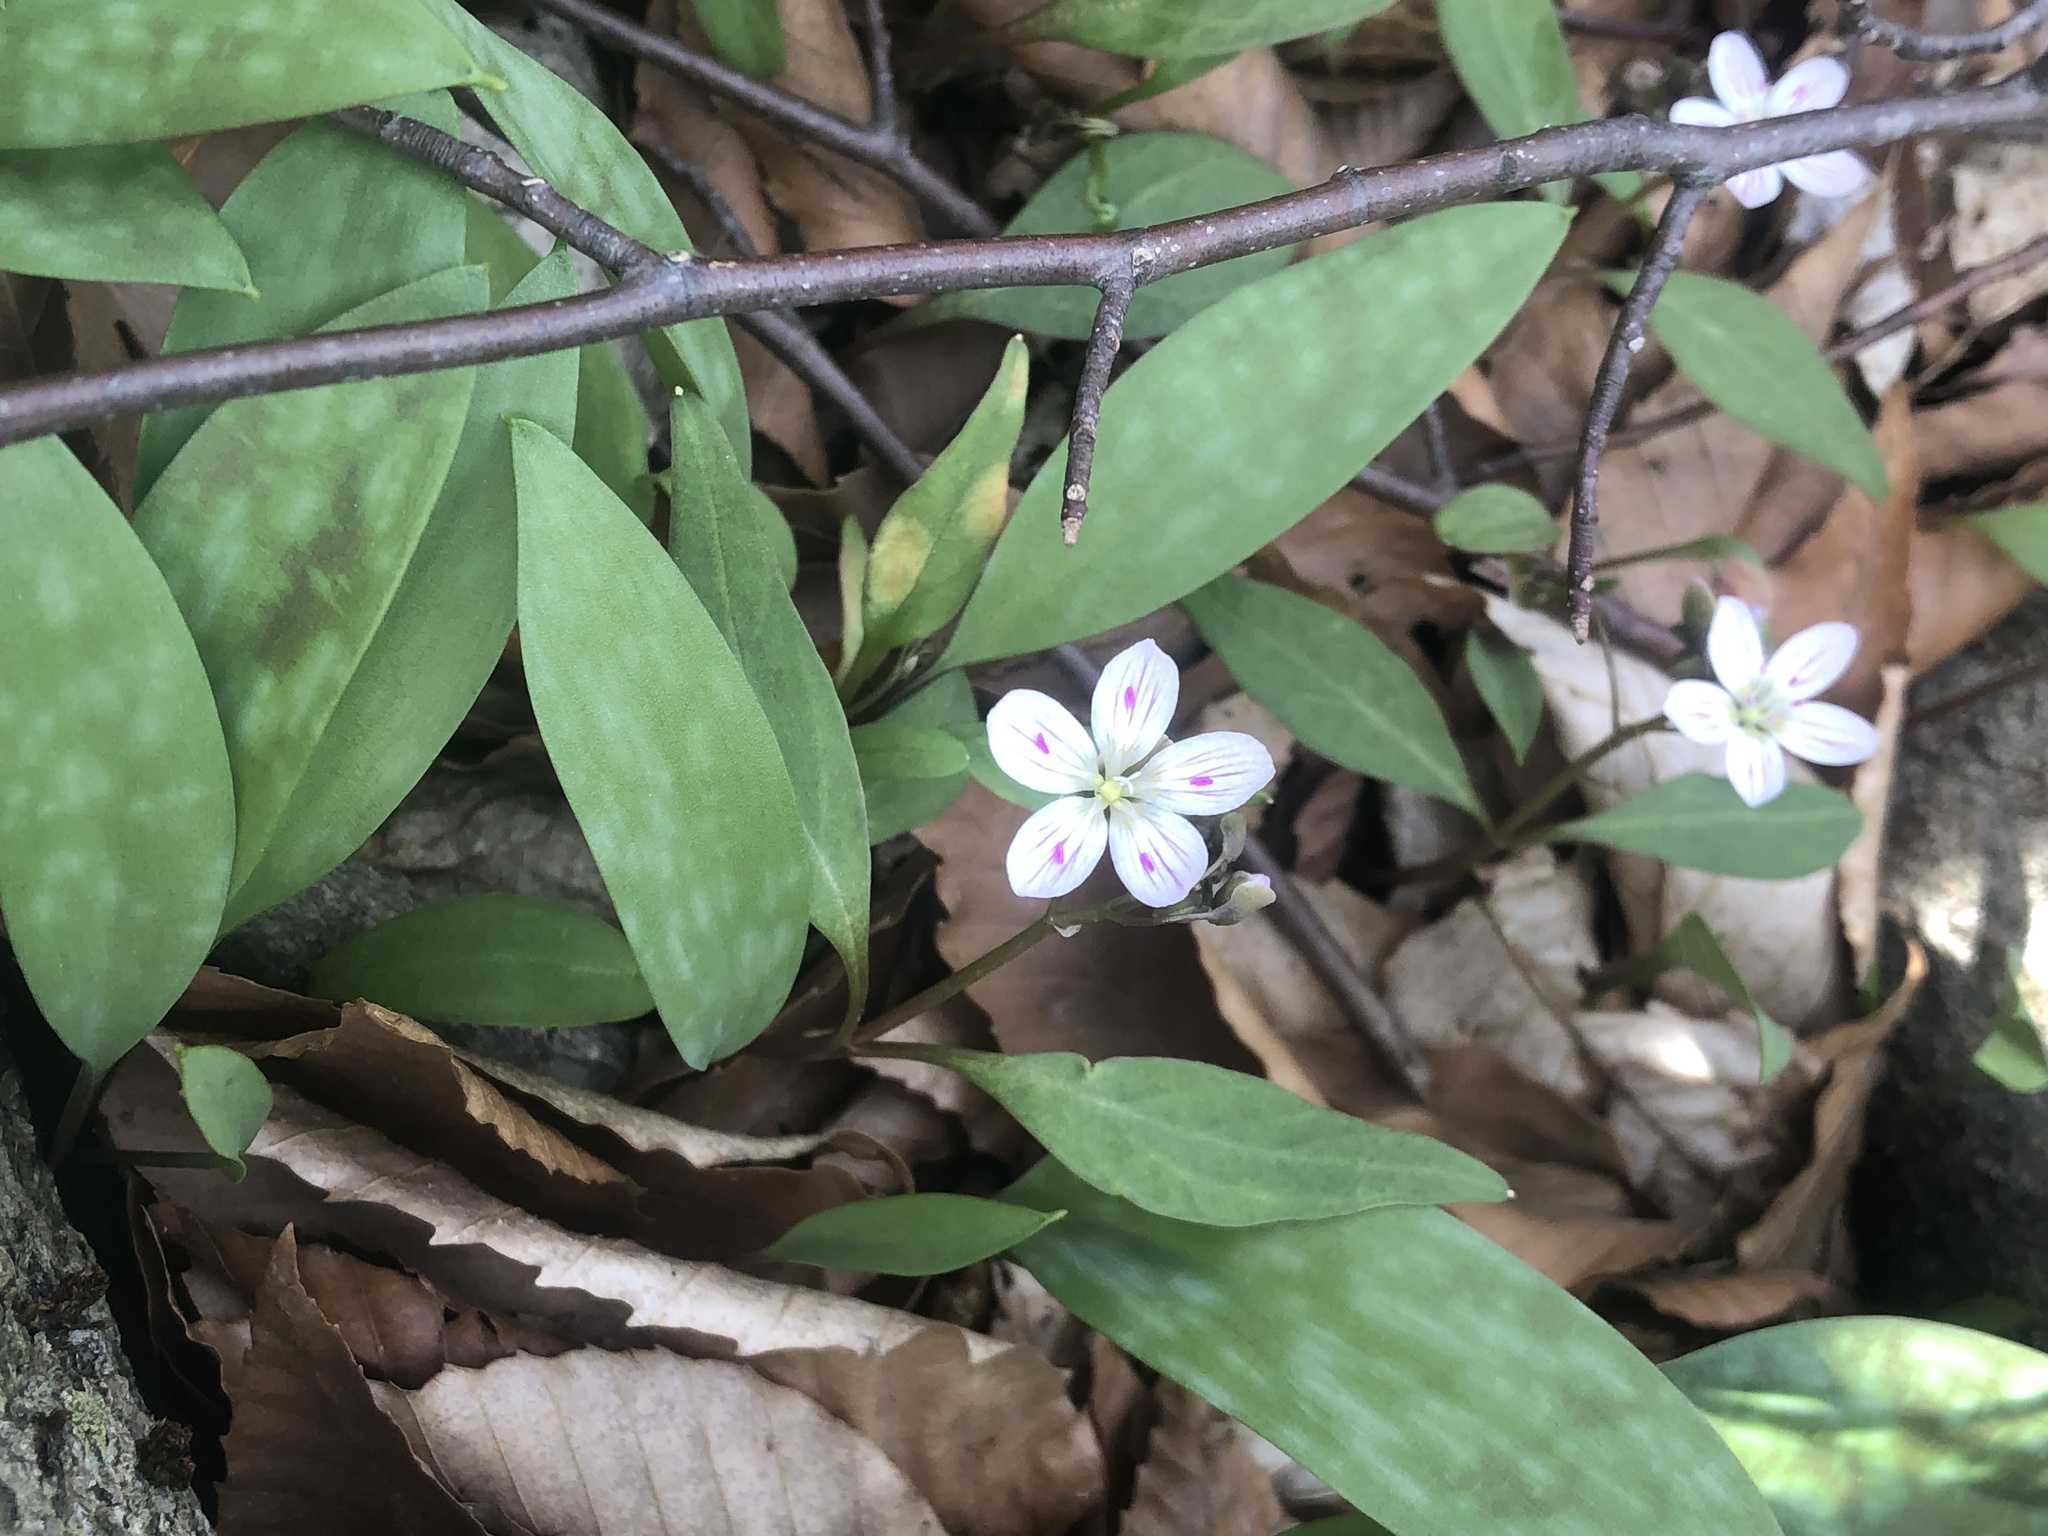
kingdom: Plantae
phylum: Tracheophyta
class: Magnoliopsida
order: Caryophyllales
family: Montiaceae
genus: Claytonia
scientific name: Claytonia caroliniana
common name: Carolina spring beauty
